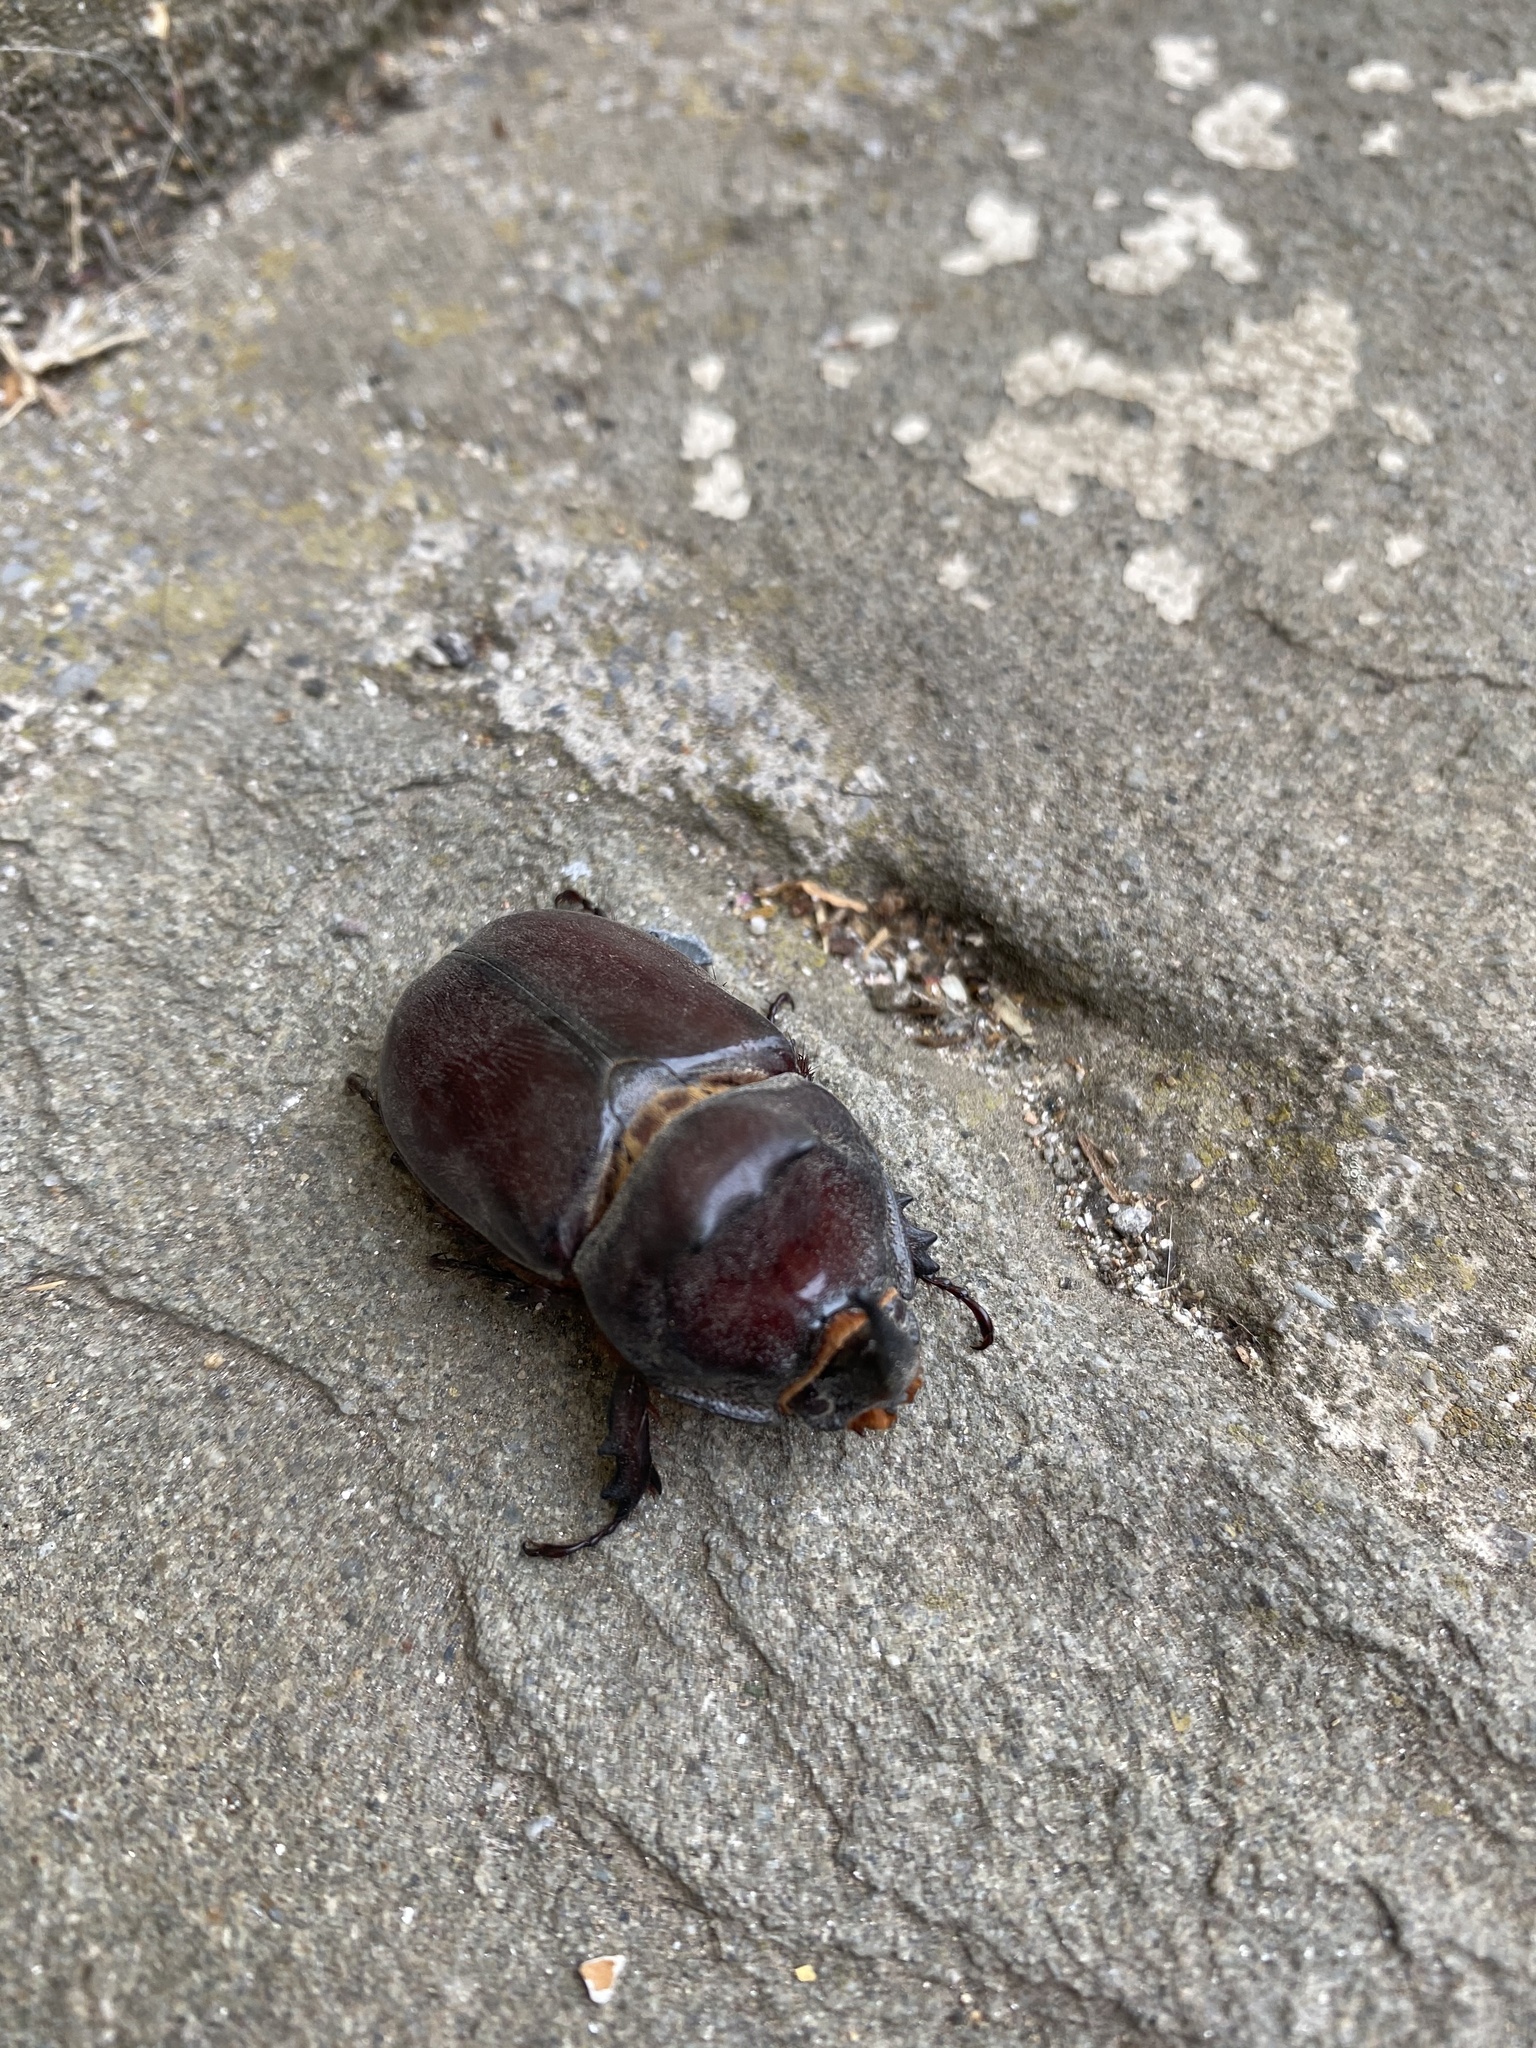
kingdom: Animalia
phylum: Arthropoda
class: Insecta
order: Coleoptera
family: Scarabaeidae
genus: Oryctes
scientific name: Oryctes nasicornis
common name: European rhinoceros beetle
